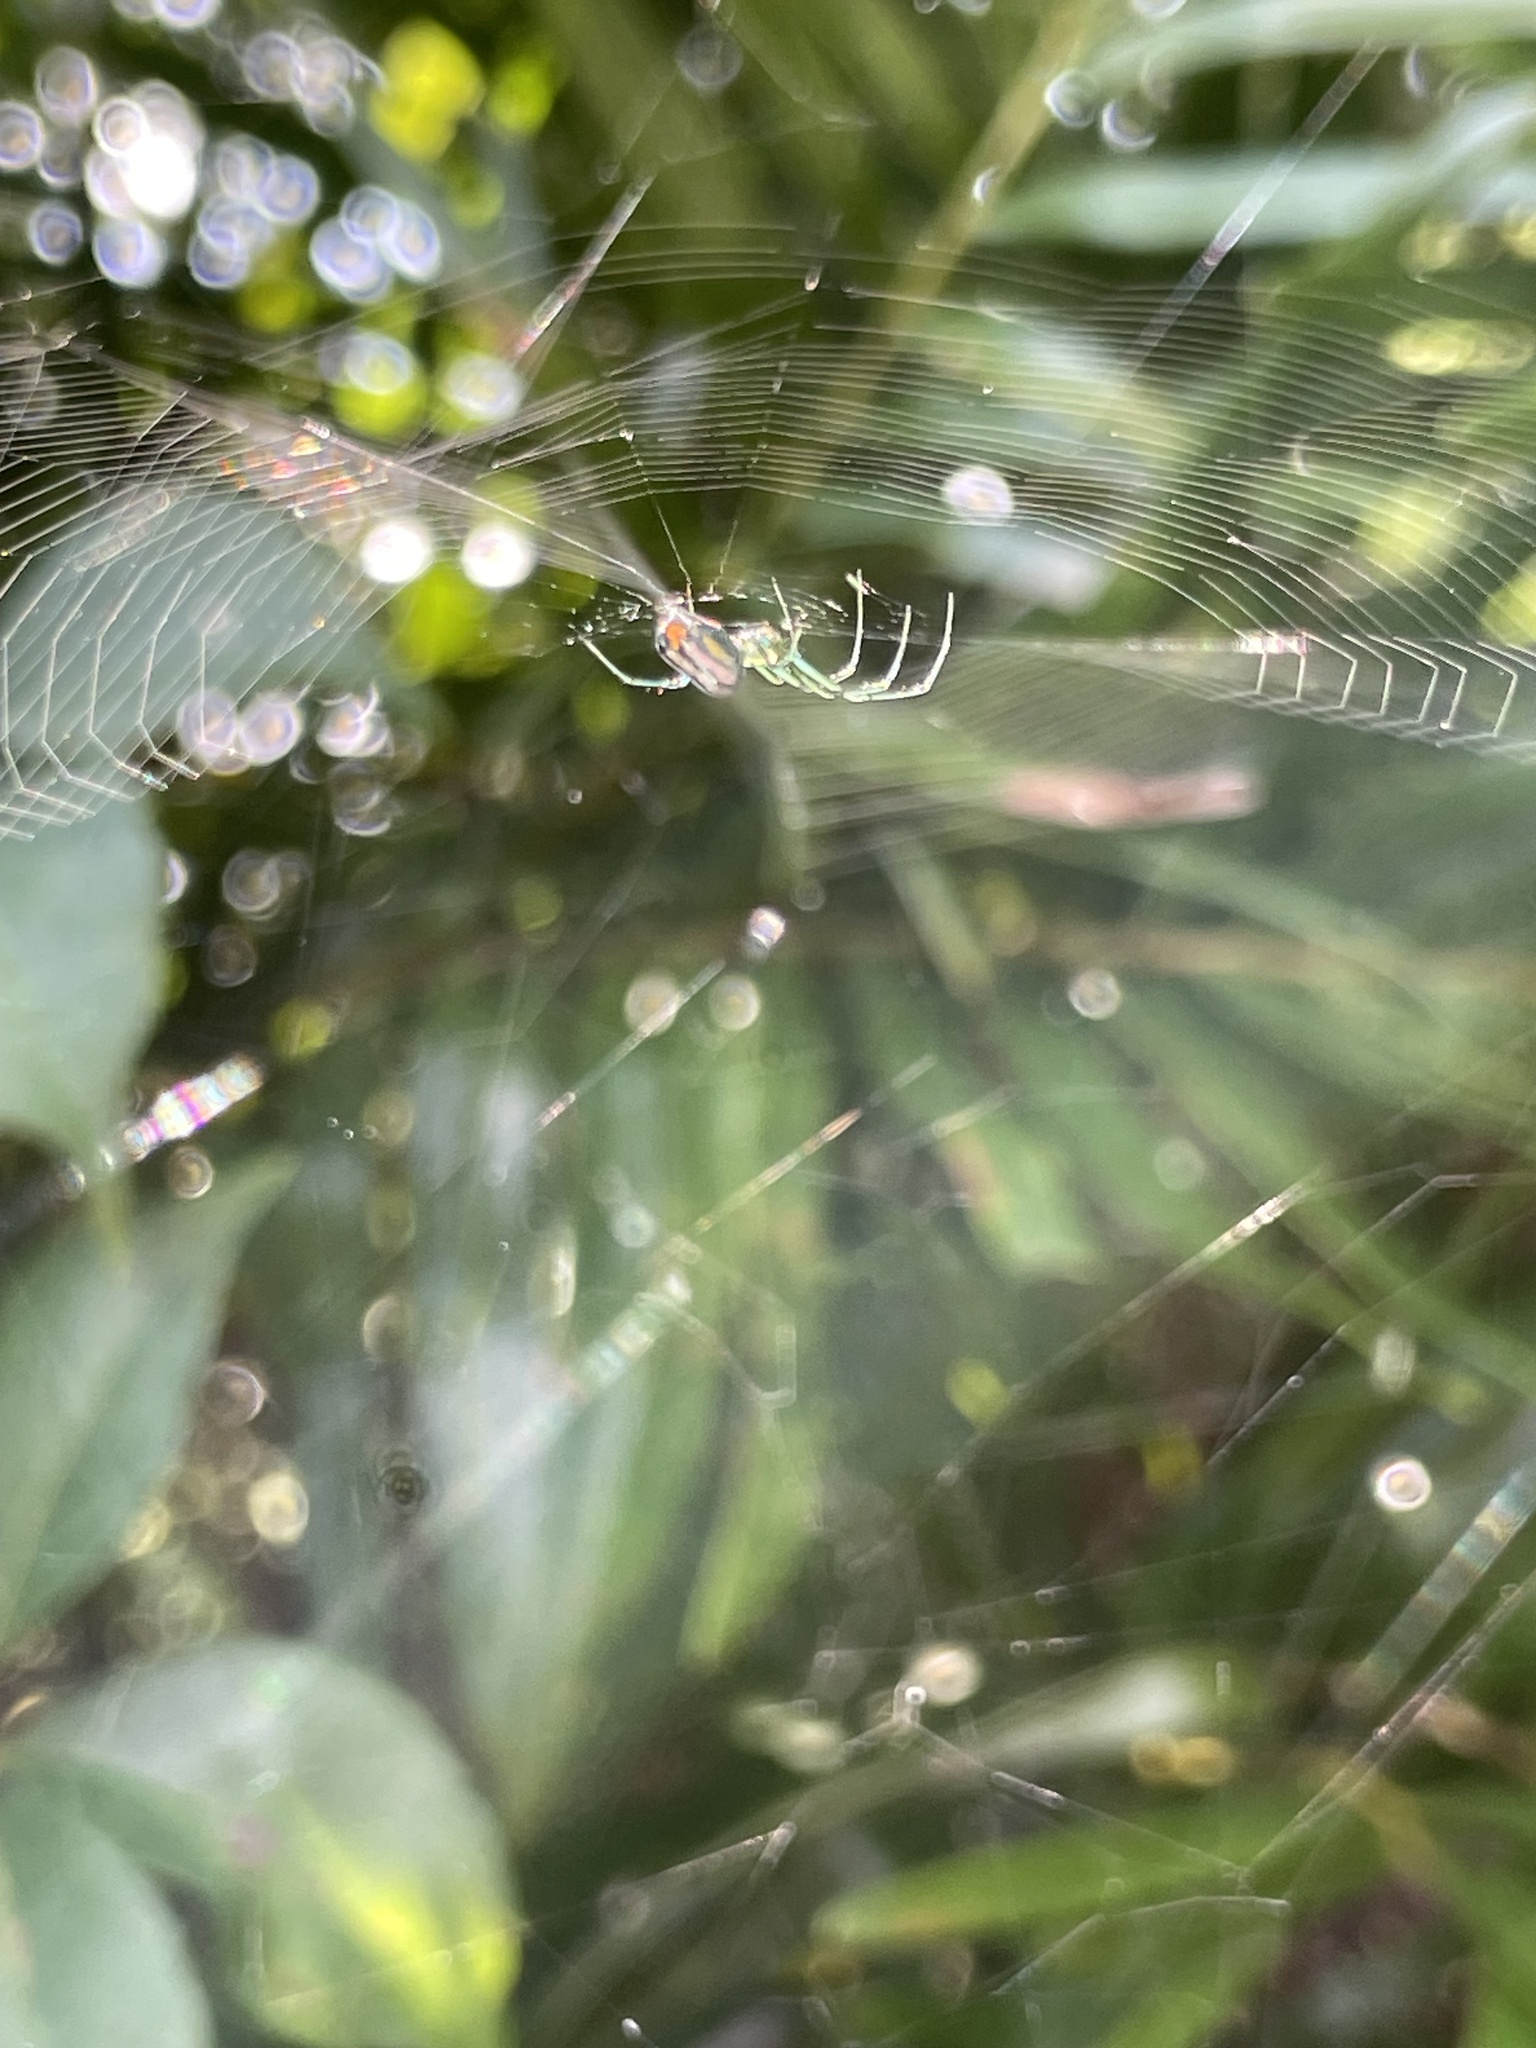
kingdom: Animalia
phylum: Arthropoda
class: Arachnida
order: Araneae
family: Tetragnathidae
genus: Leucauge
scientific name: Leucauge argyrobapta
